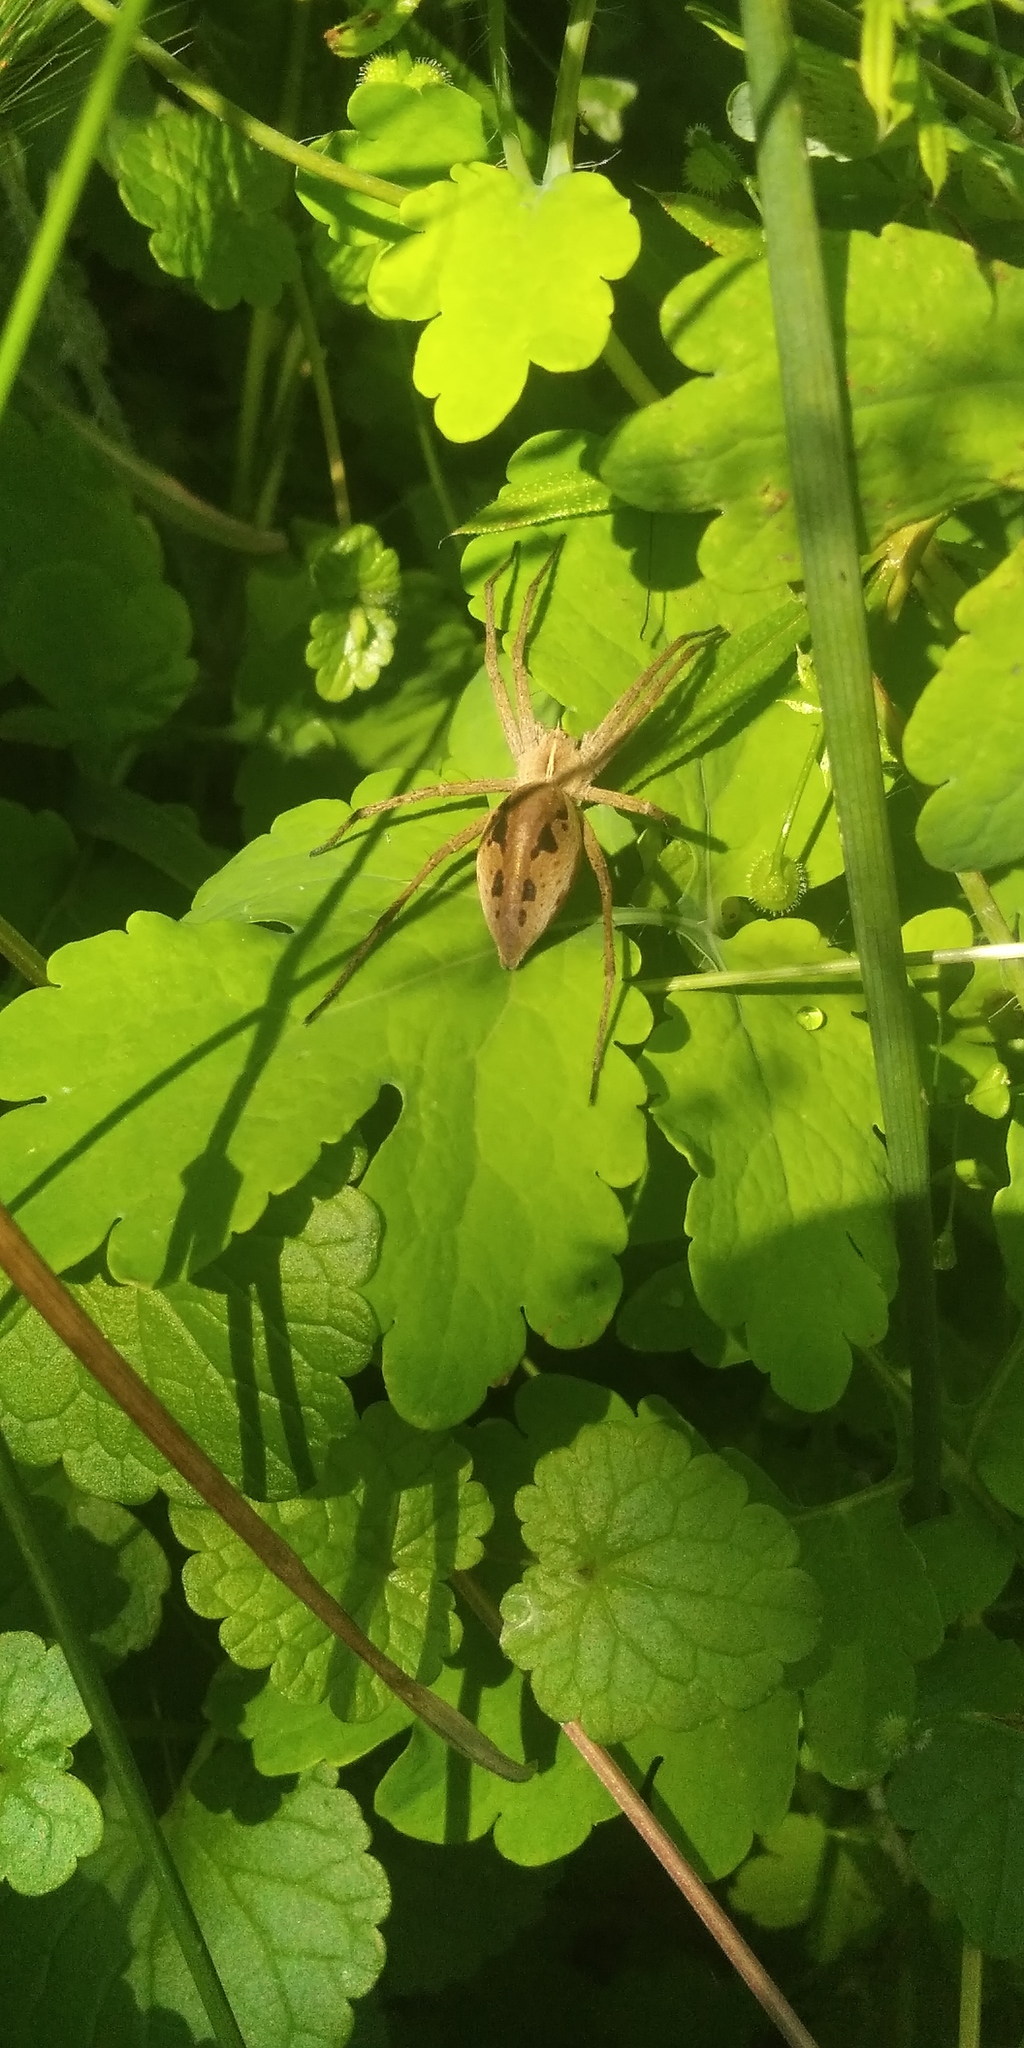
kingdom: Animalia
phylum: Arthropoda
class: Arachnida
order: Araneae
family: Pisauridae
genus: Pisaura
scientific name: Pisaura mirabilis
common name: Tent spider
